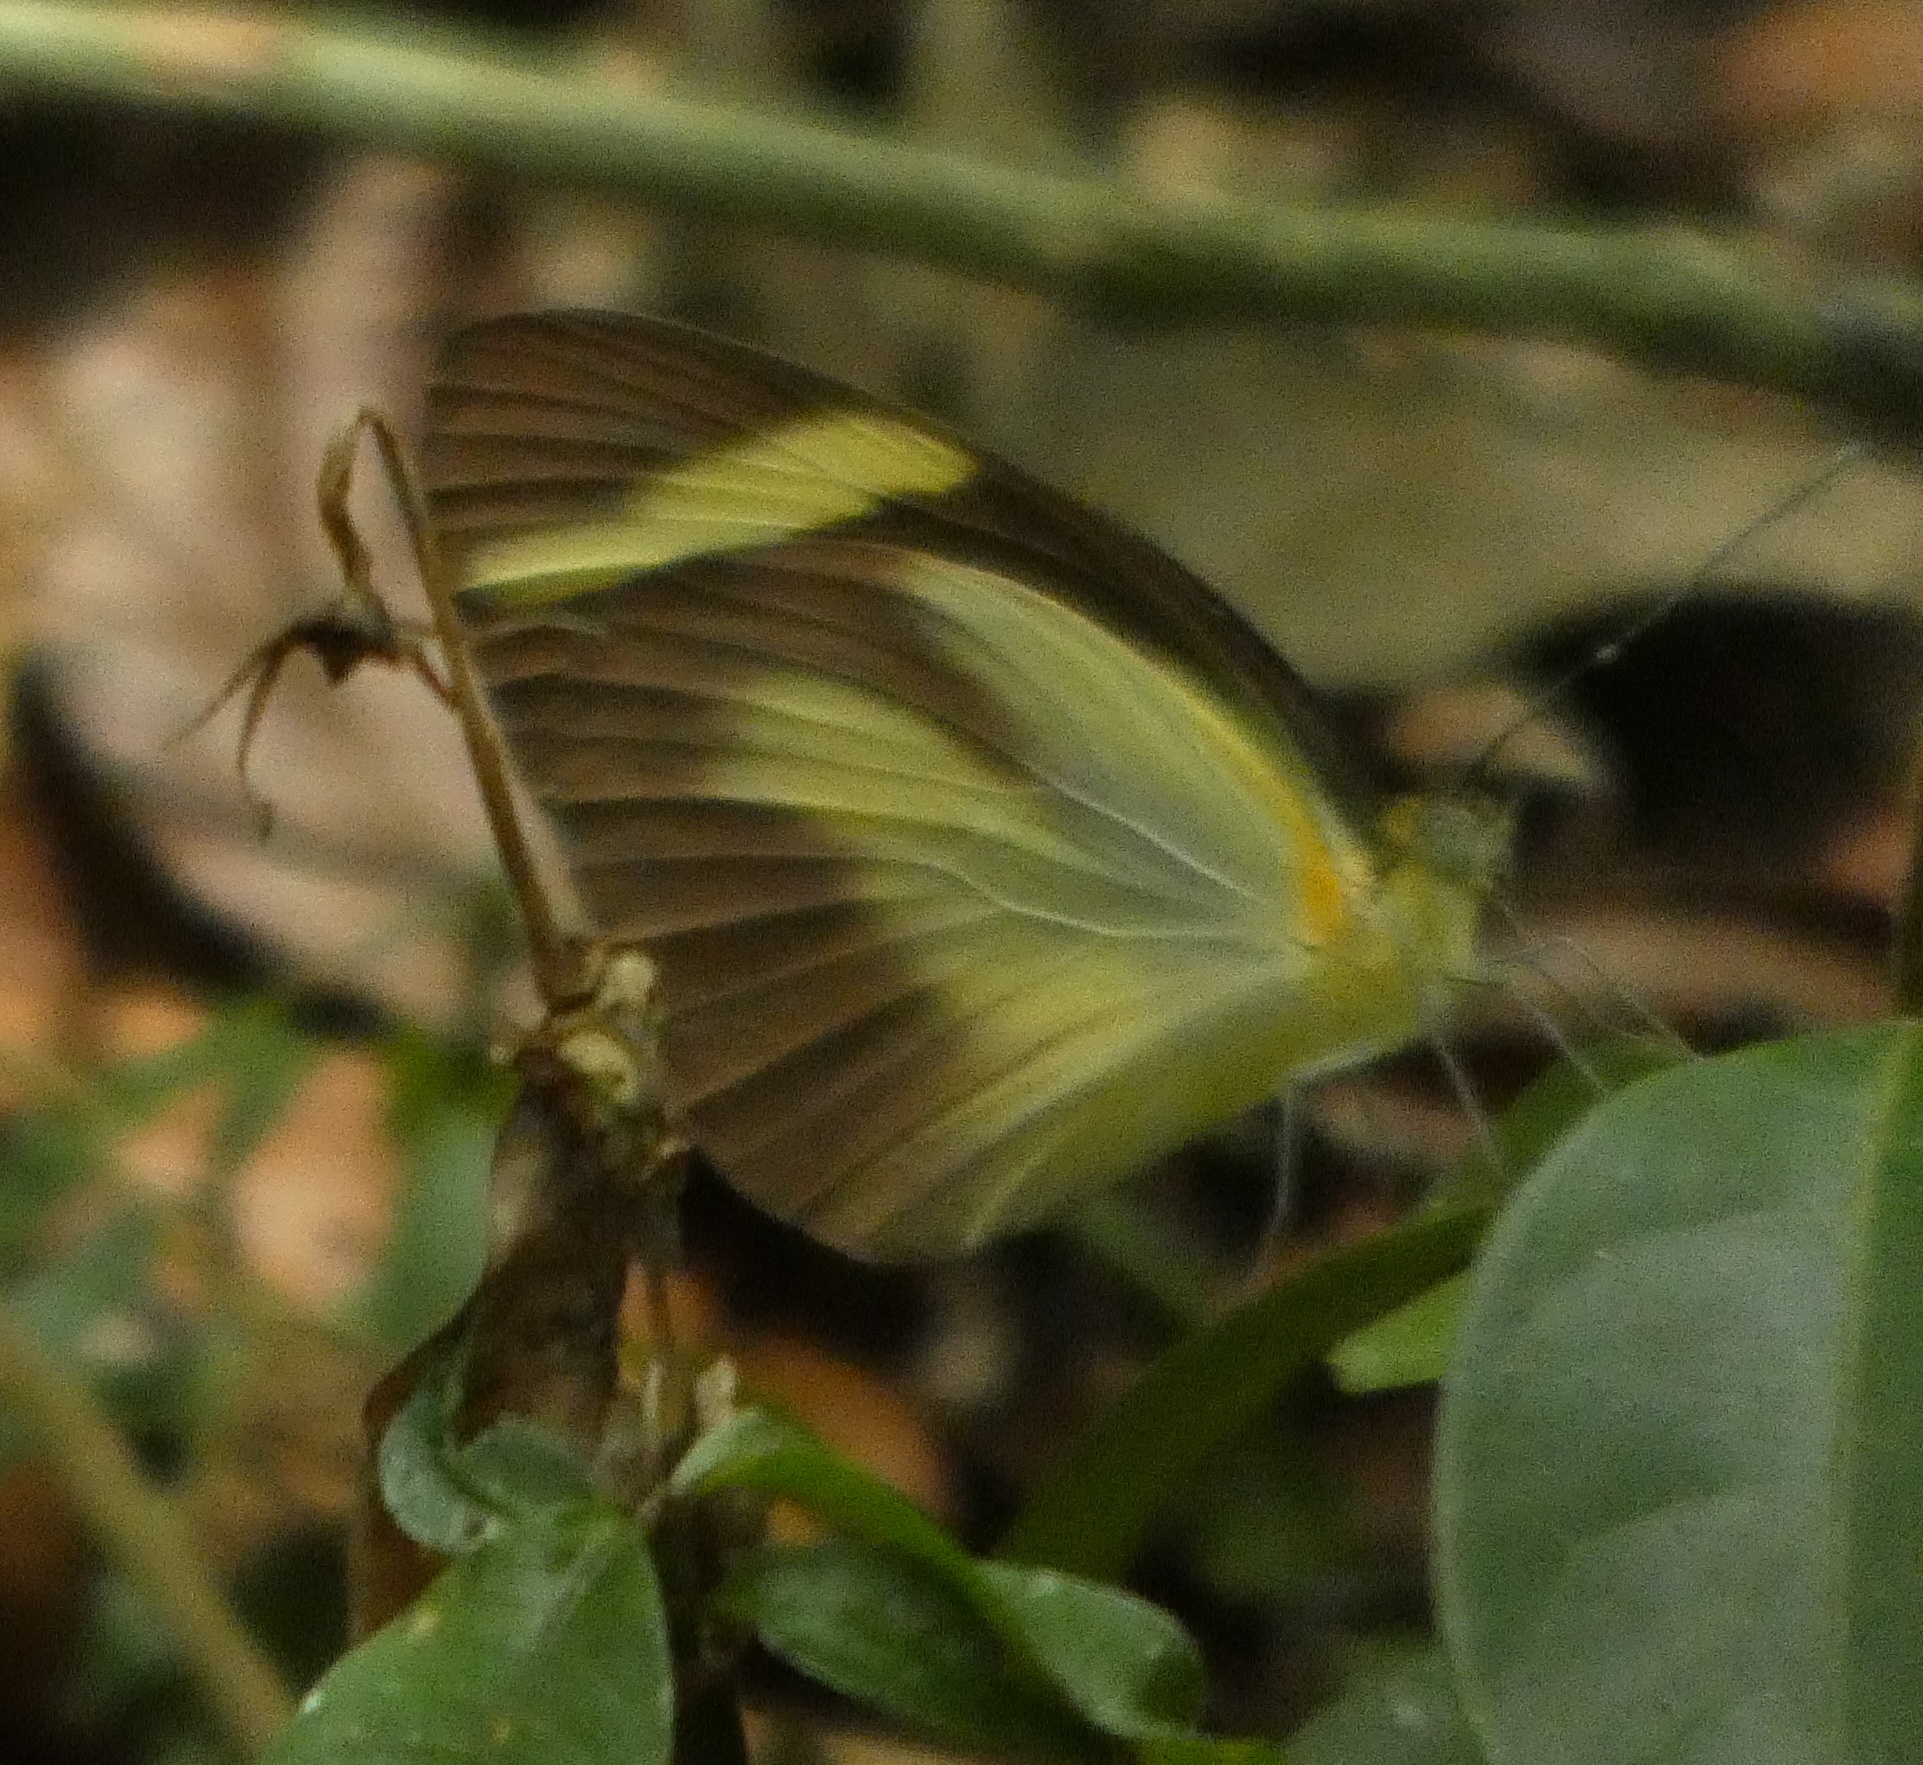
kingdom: Animalia
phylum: Arthropoda
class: Insecta
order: Lepidoptera
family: Pieridae
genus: Itaballia
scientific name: Itaballia demophile
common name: Cross-barred white
